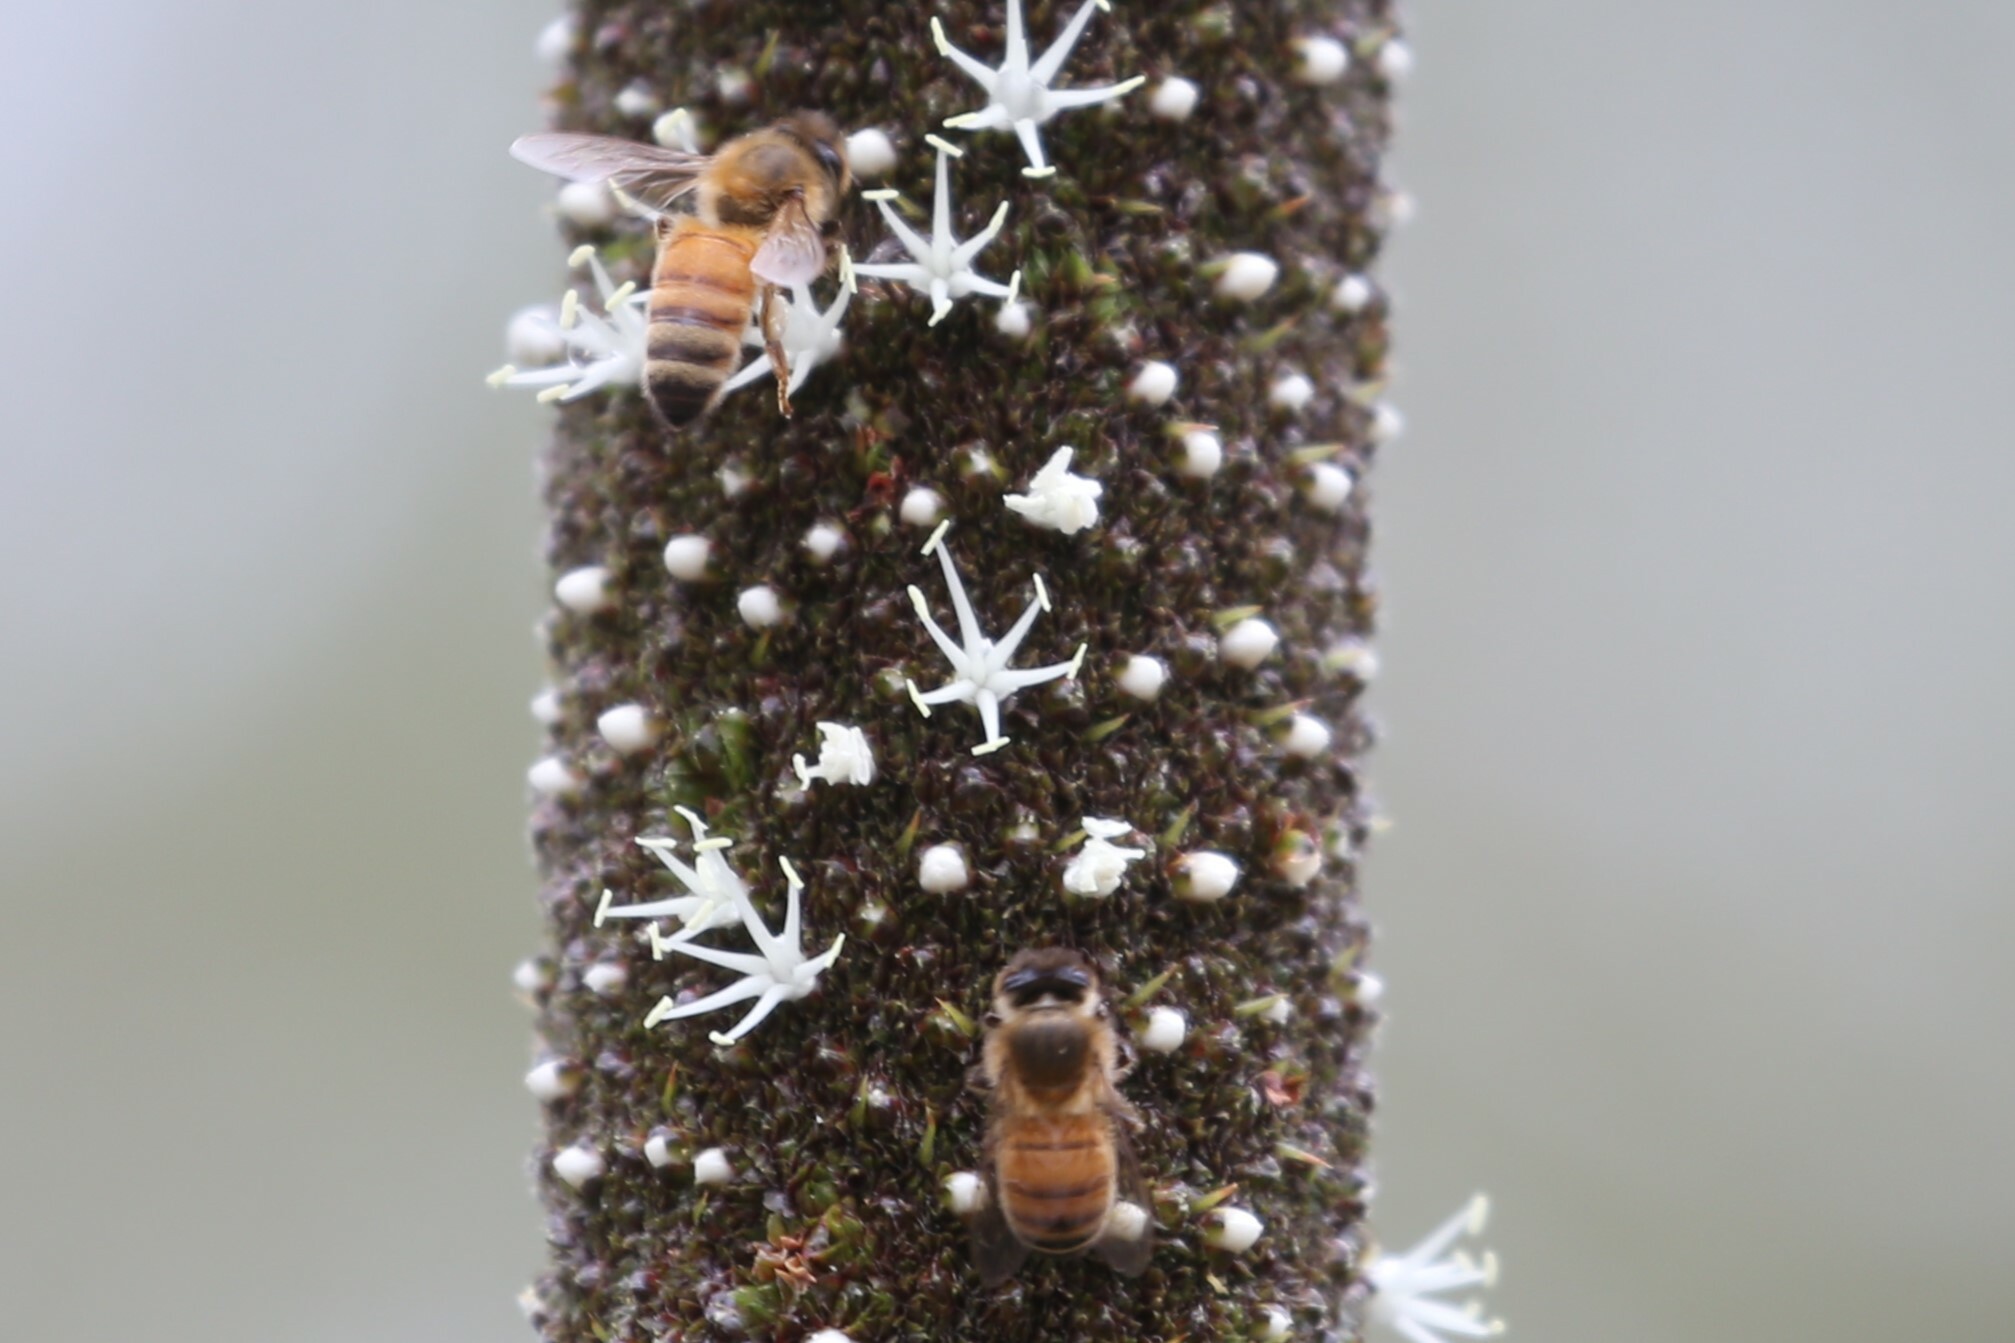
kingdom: Animalia
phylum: Arthropoda
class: Insecta
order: Hymenoptera
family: Apidae
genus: Apis
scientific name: Apis mellifera
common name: Honey bee
